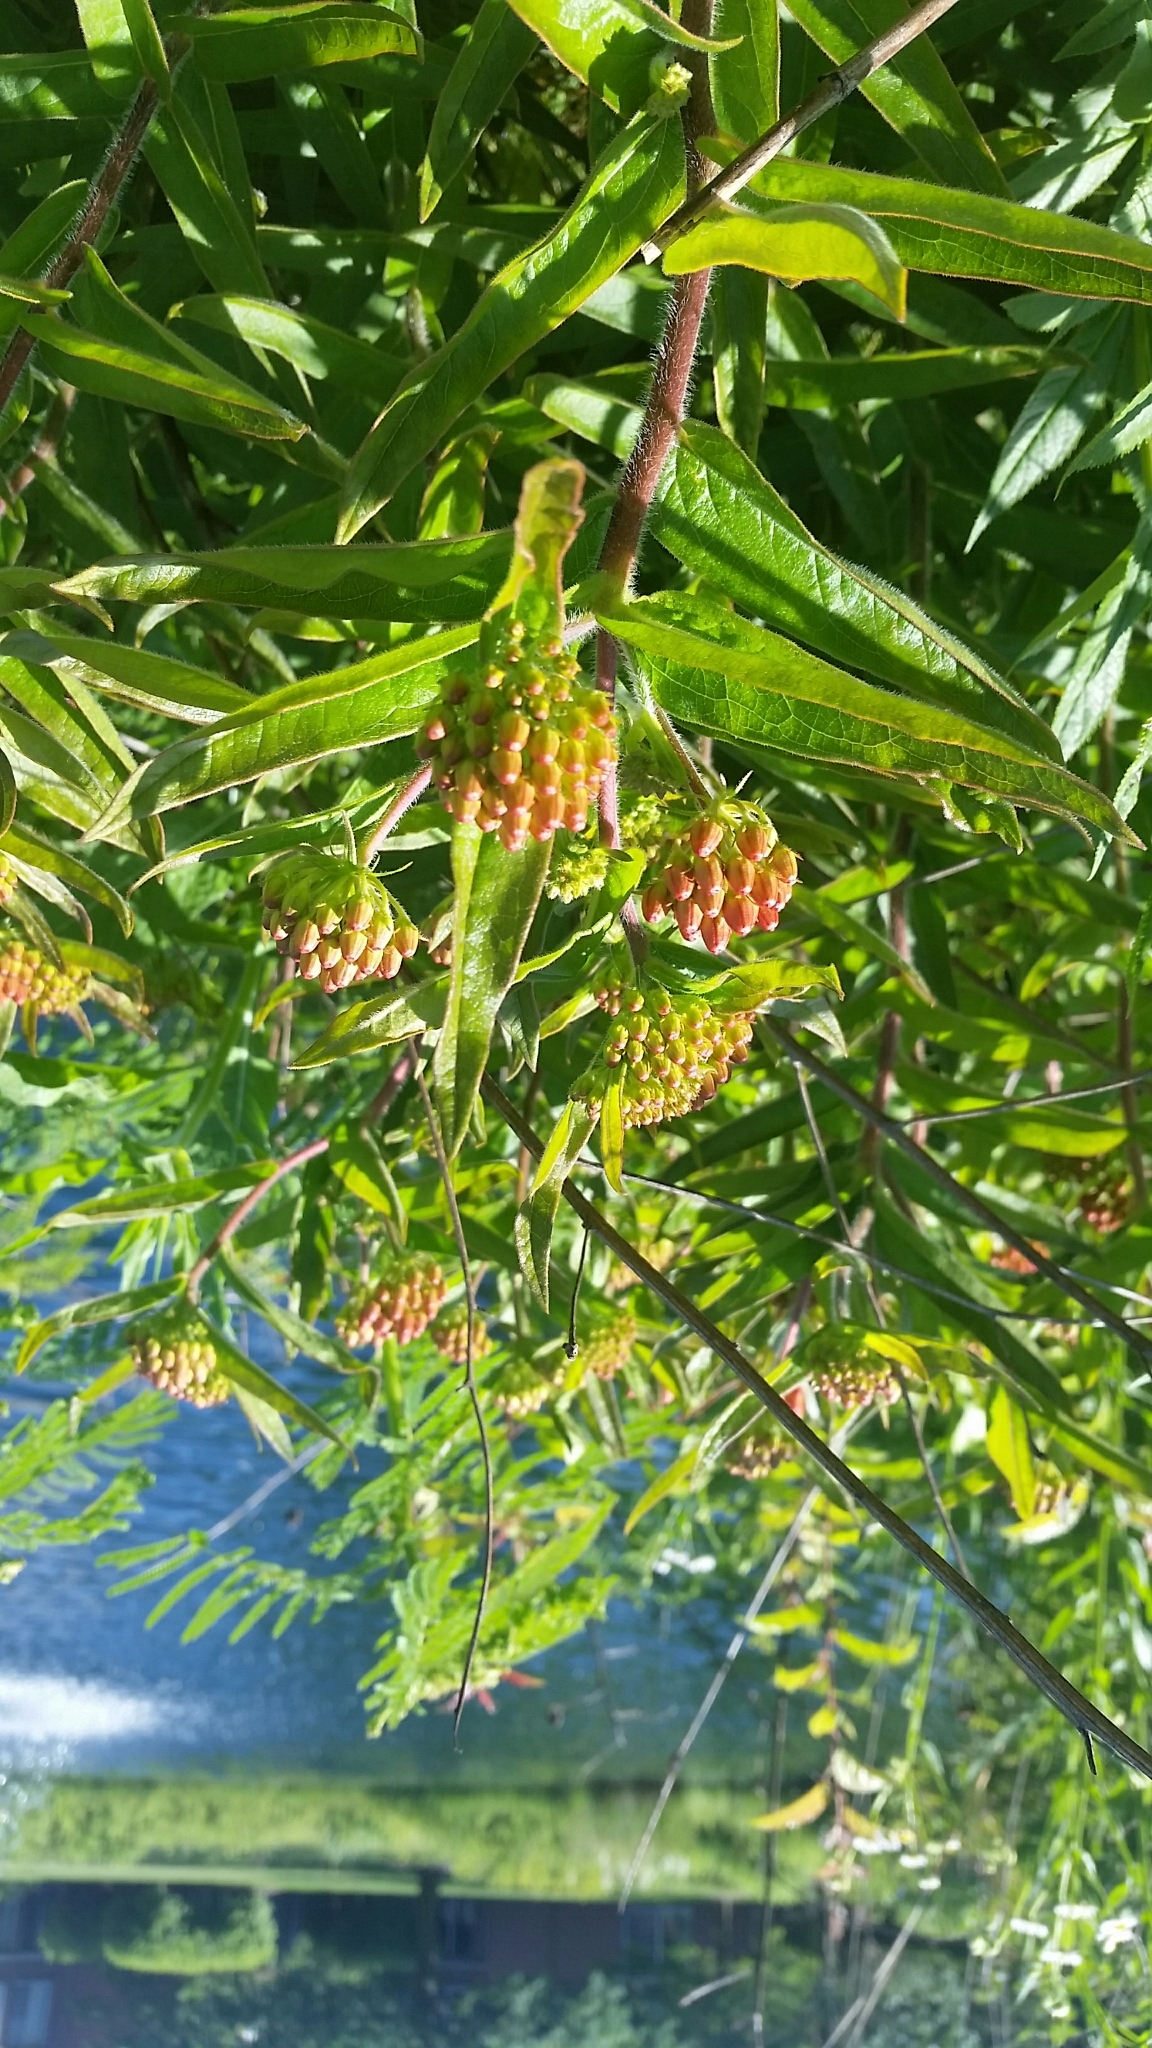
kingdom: Plantae
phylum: Tracheophyta
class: Magnoliopsida
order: Gentianales
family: Apocynaceae
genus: Asclepias
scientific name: Asclepias tuberosa
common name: Butterfly milkweed
